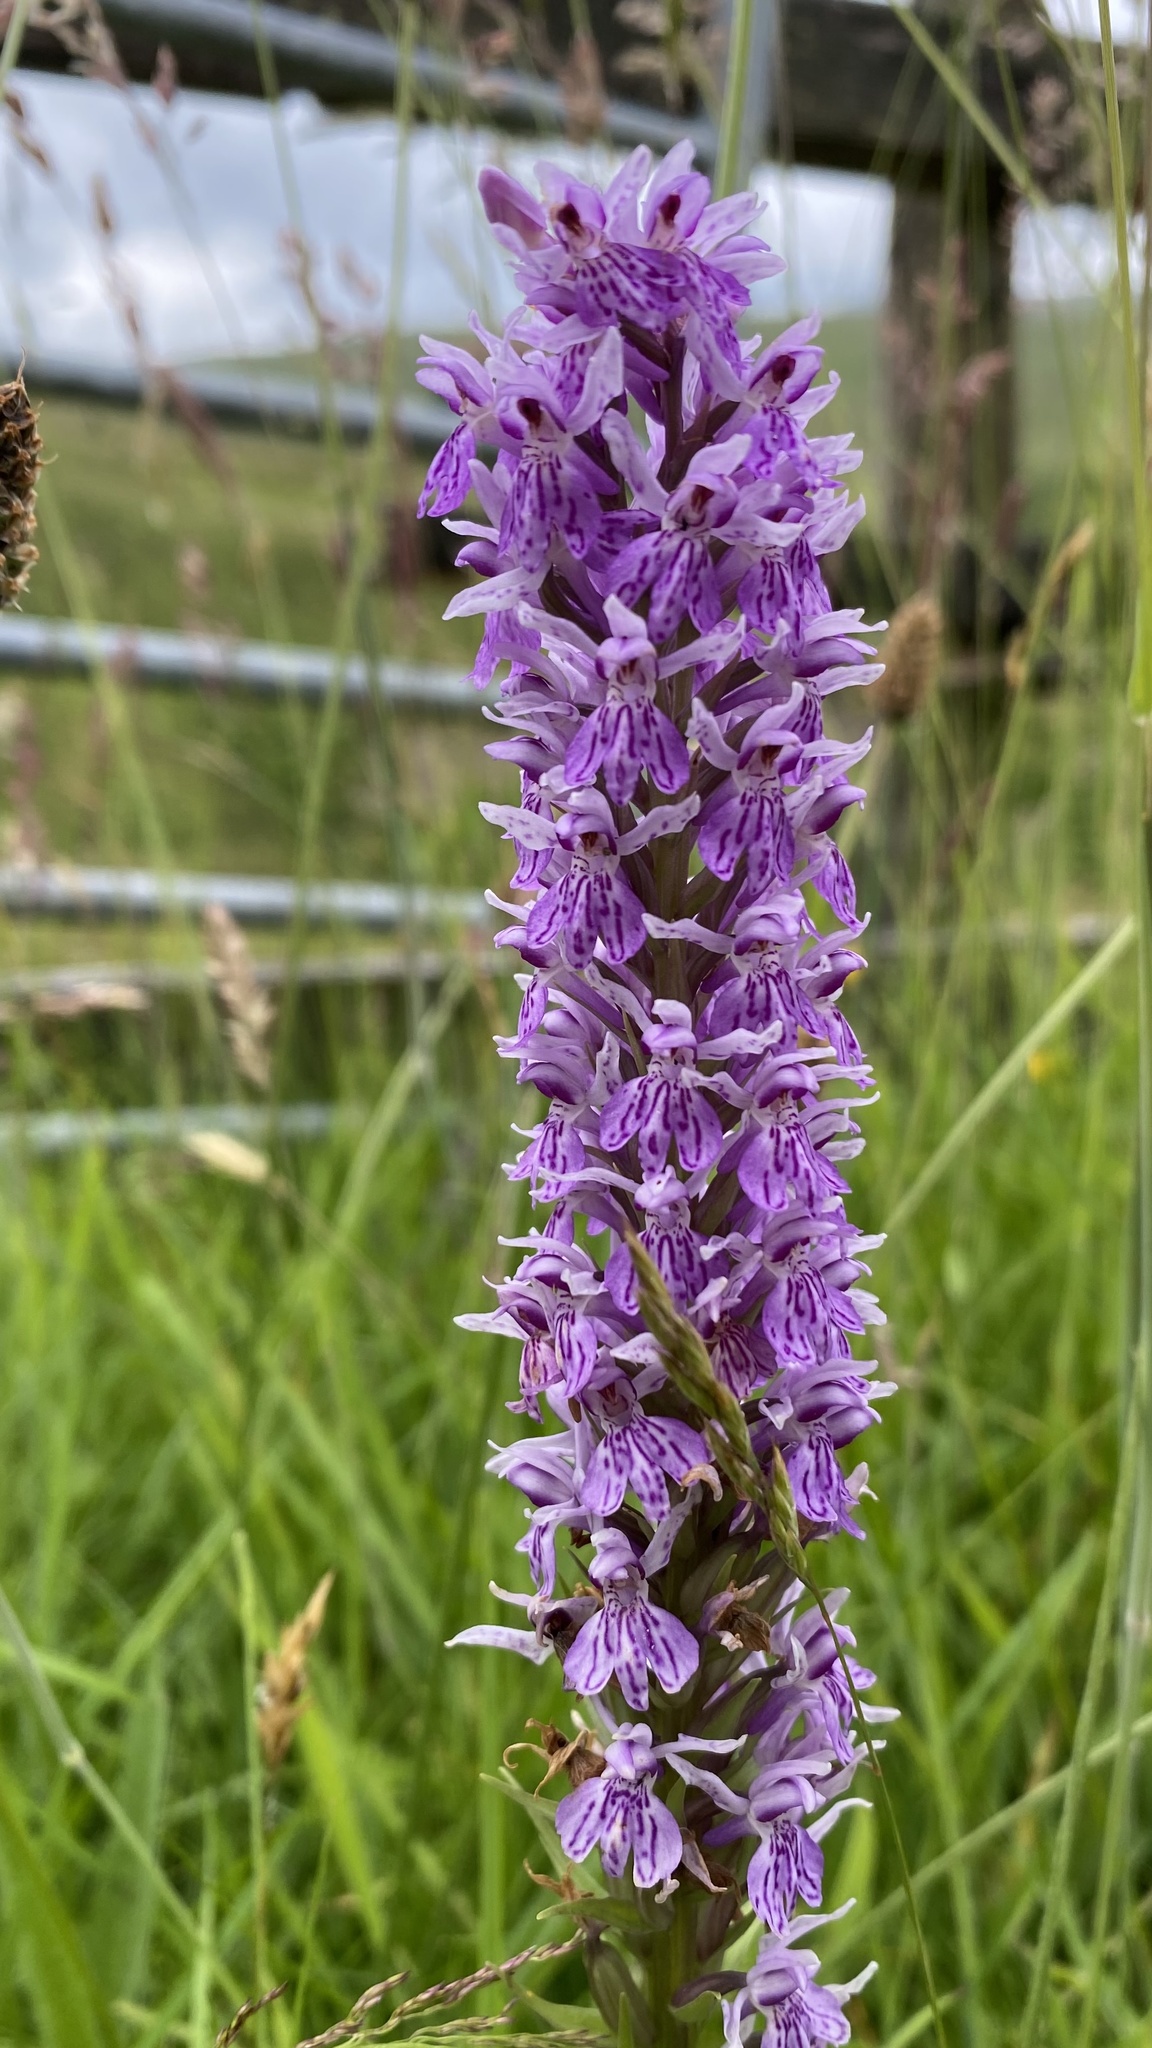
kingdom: Plantae
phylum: Tracheophyta
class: Liliopsida
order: Asparagales
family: Orchidaceae
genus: Dactylorhiza
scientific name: Dactylorhiza maculata
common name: Heath spotted-orchid
